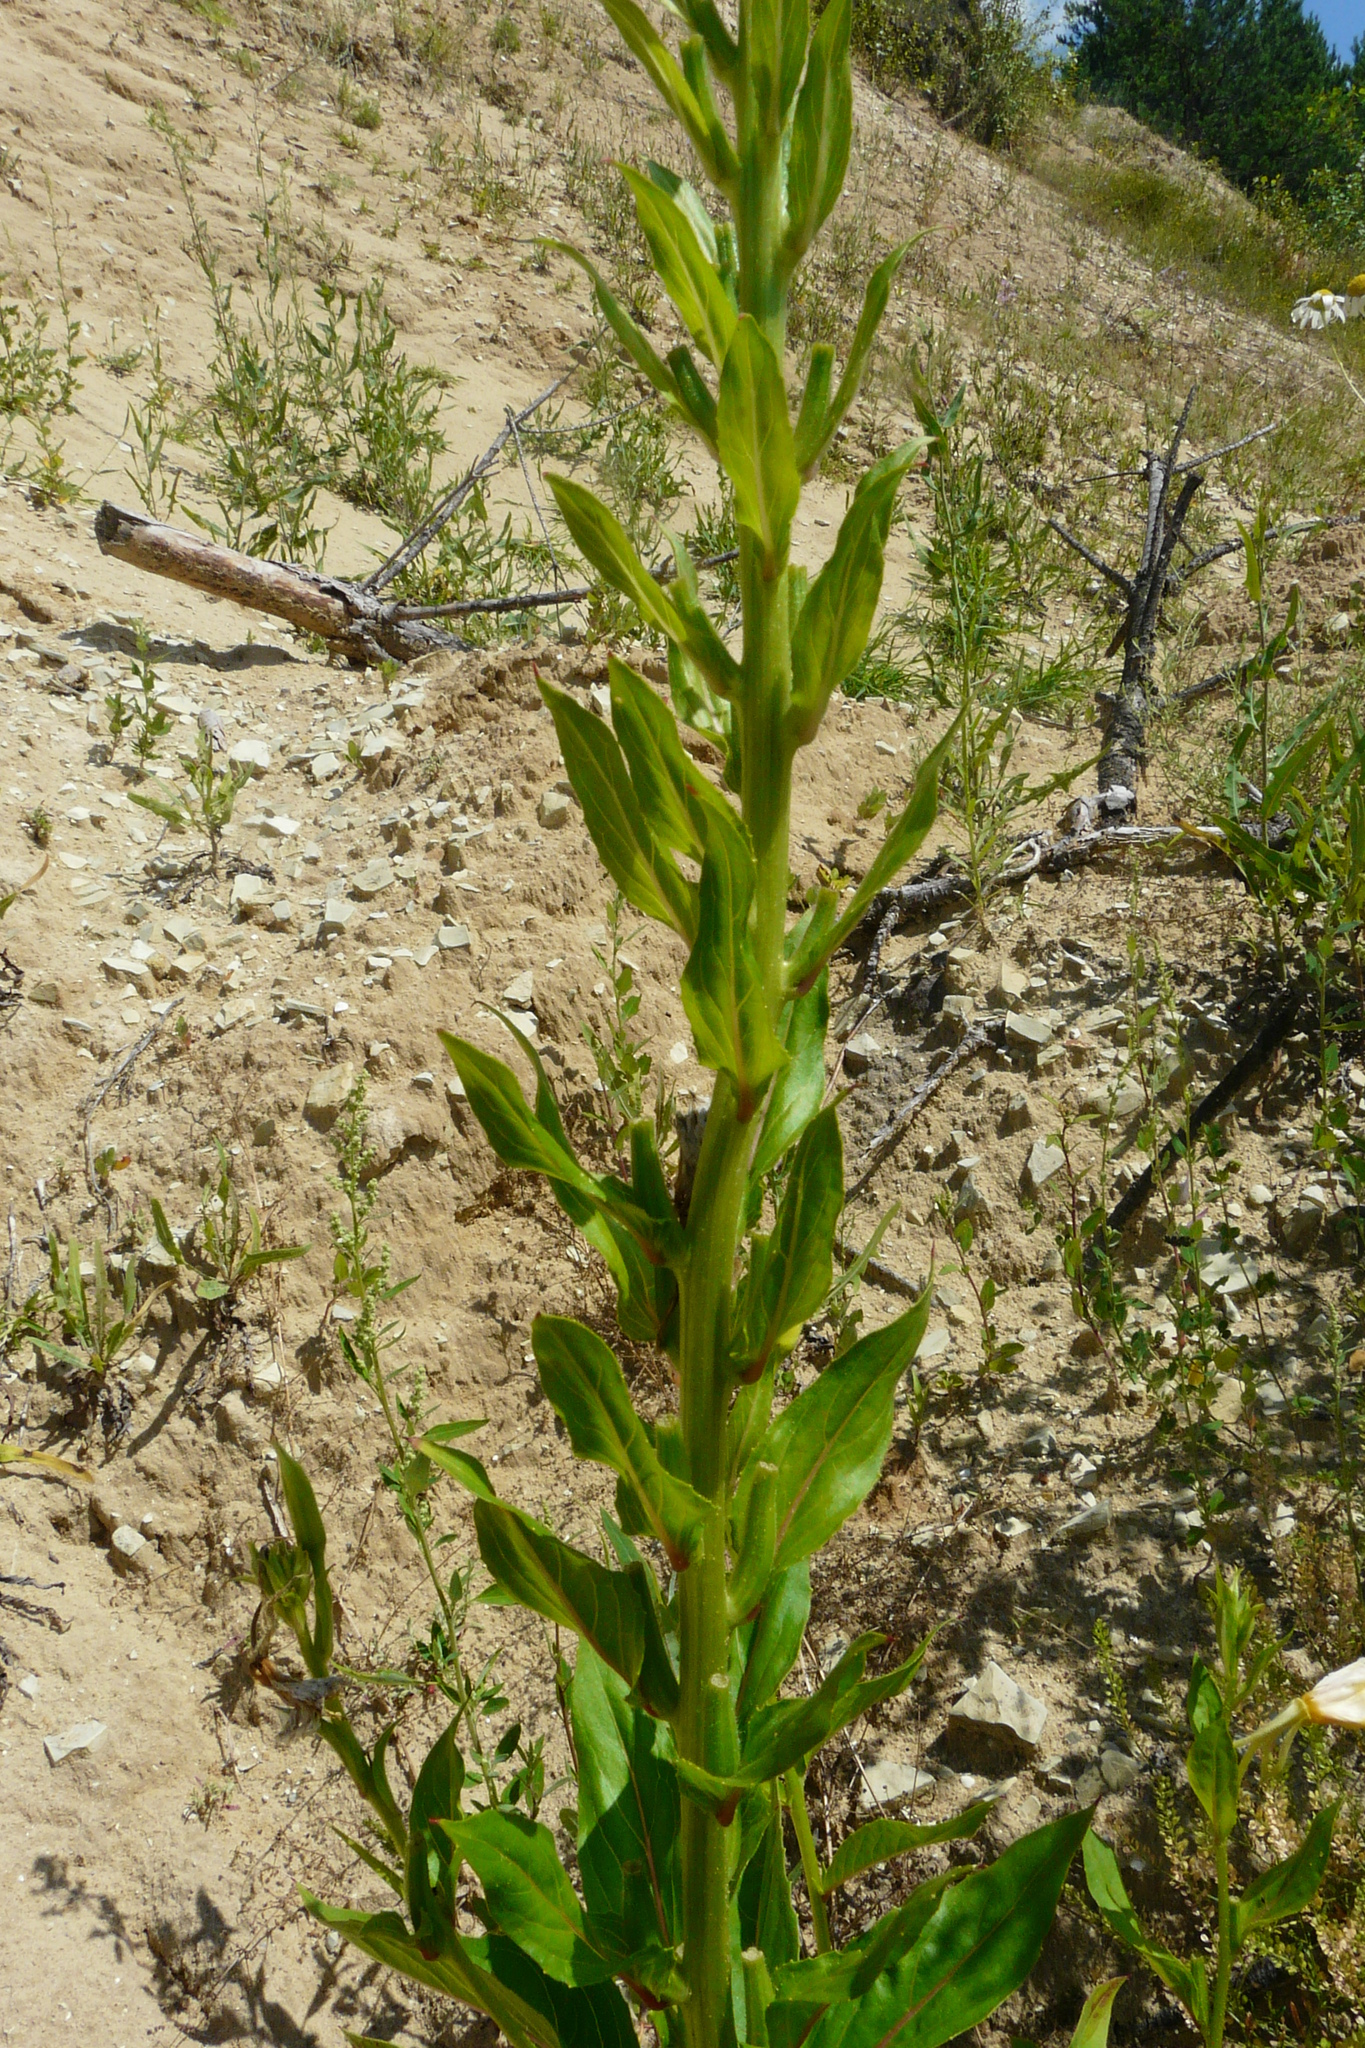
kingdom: Plantae
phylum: Tracheophyta
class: Magnoliopsida
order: Myrtales
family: Onagraceae
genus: Oenothera
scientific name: Oenothera biennis
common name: Common evening-primrose
